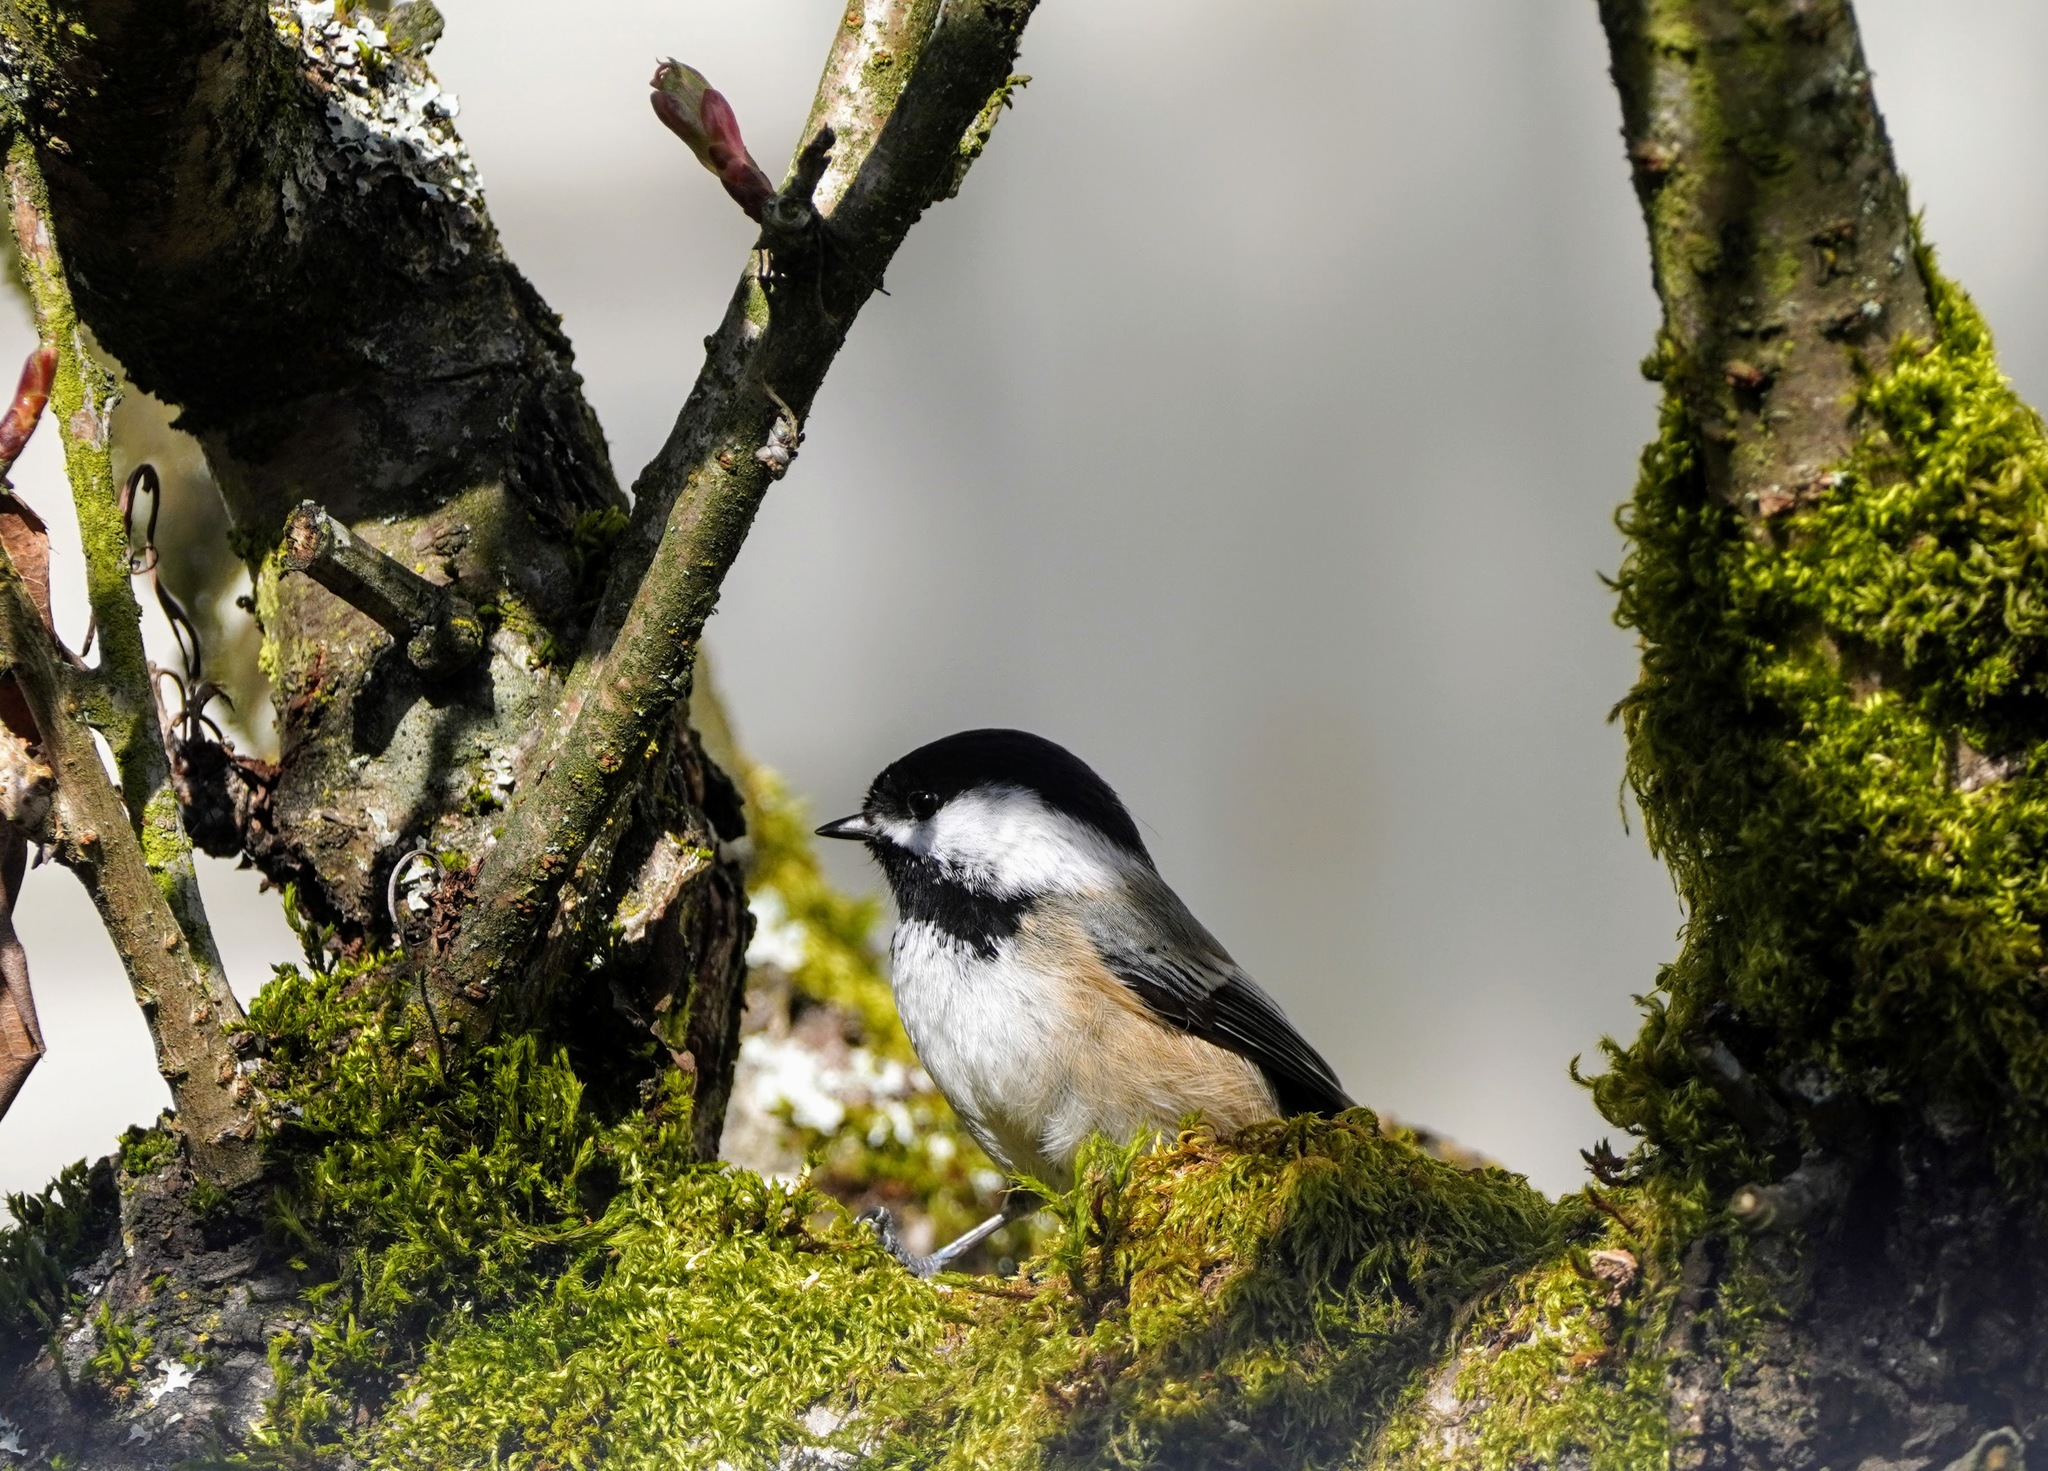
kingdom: Animalia
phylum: Chordata
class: Aves
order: Passeriformes
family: Paridae
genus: Poecile
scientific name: Poecile atricapillus
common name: Black-capped chickadee
